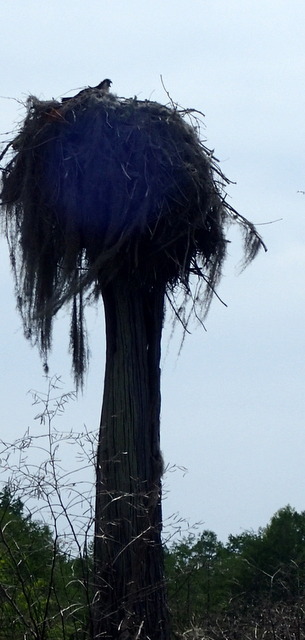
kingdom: Animalia
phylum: Chordata
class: Aves
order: Accipitriformes
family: Pandionidae
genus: Pandion
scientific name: Pandion haliaetus
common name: Osprey
